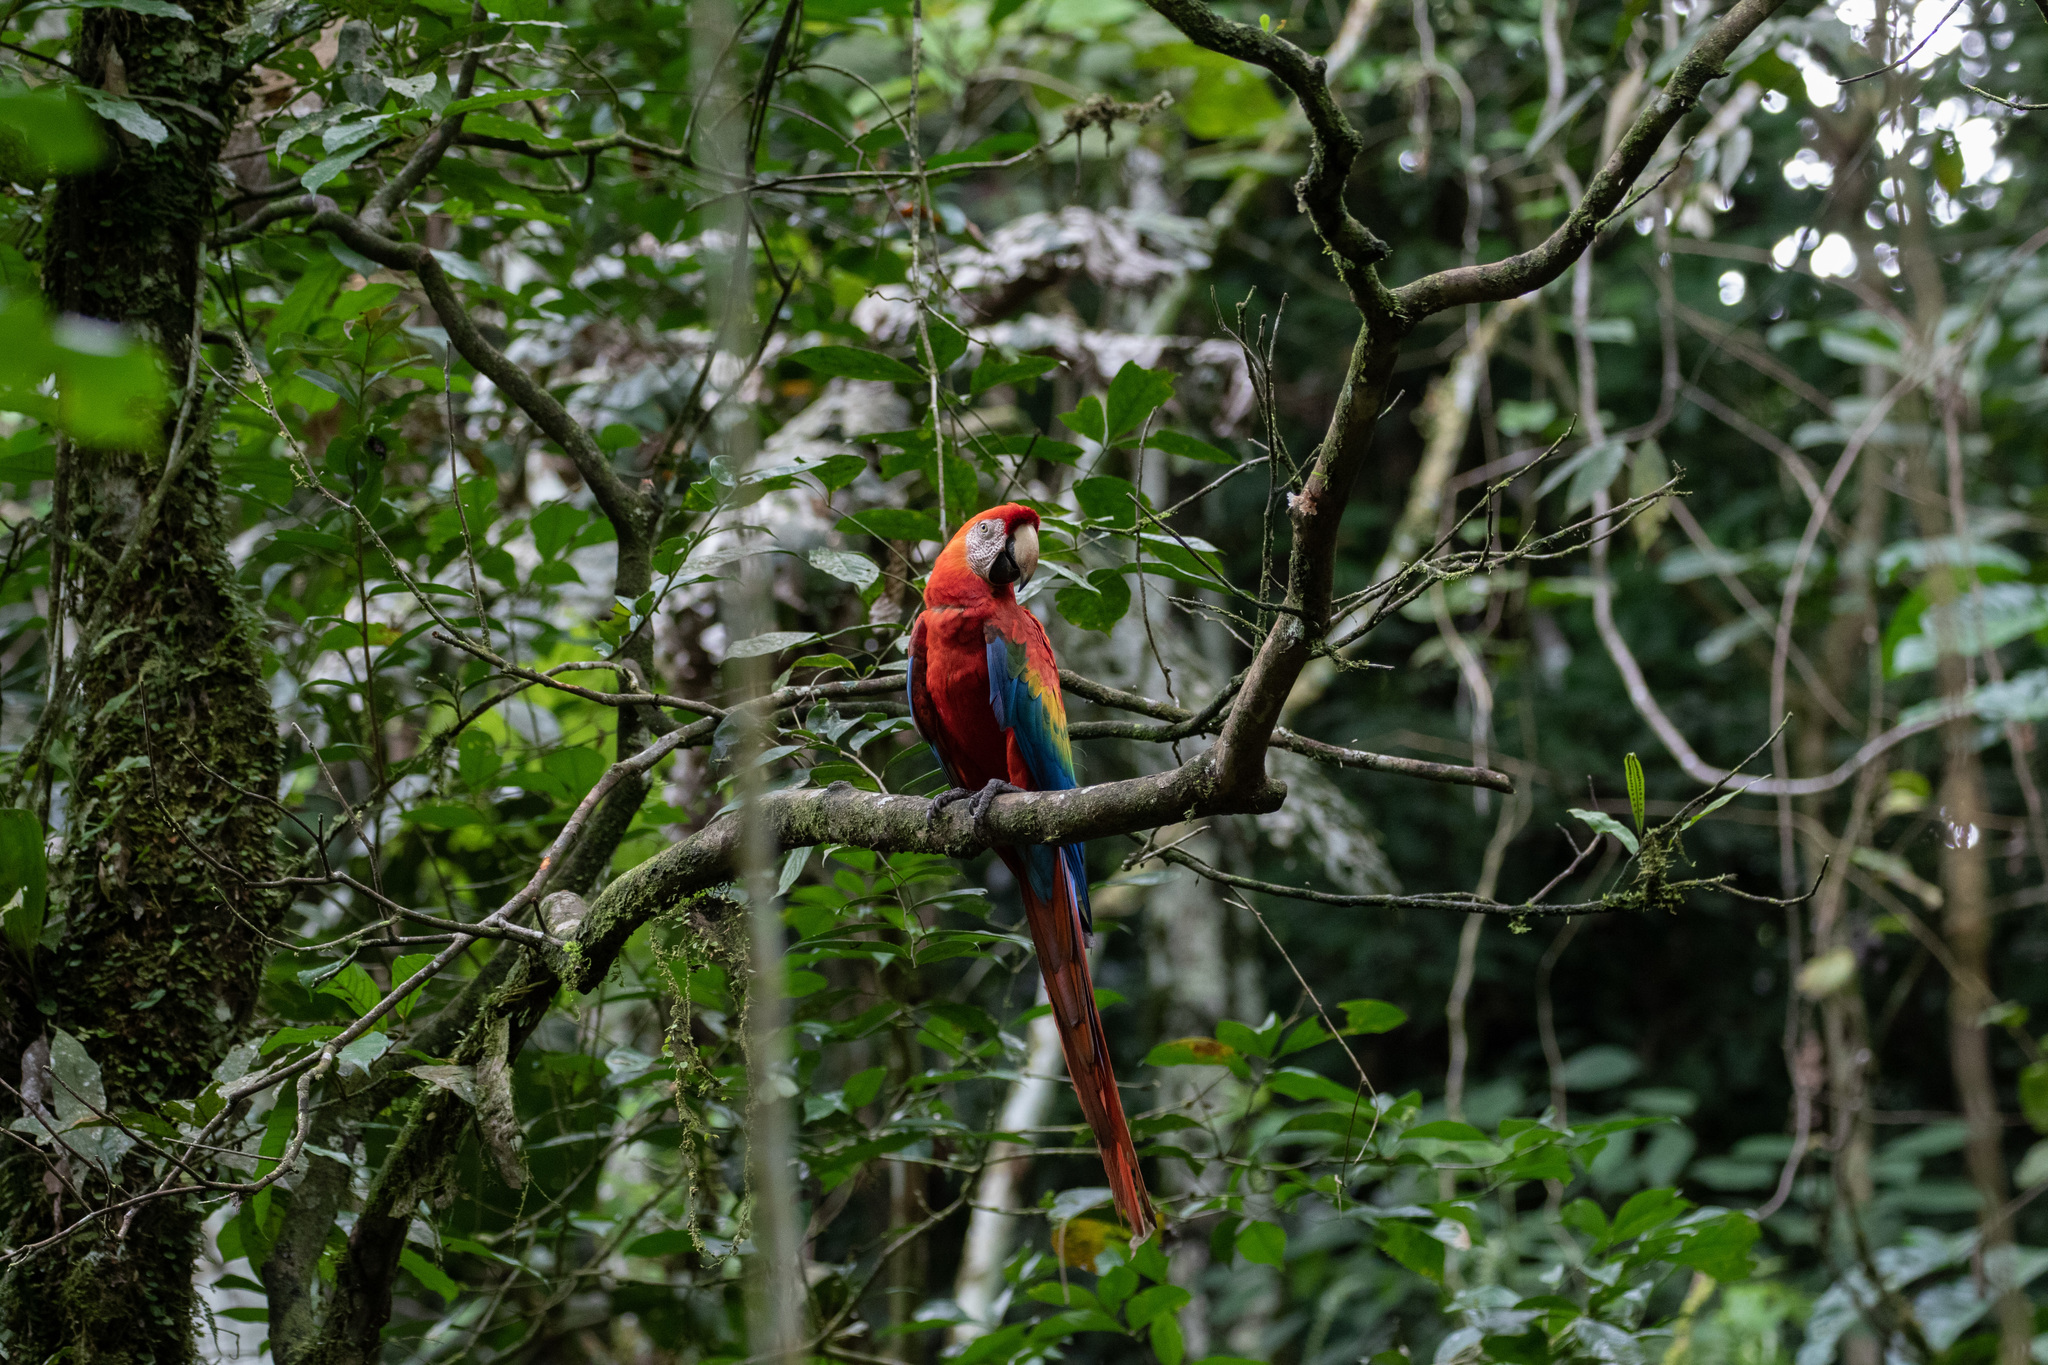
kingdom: Animalia
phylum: Chordata
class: Aves
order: Psittaciformes
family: Psittacidae
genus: Ara
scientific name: Ara macao
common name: Scarlet macaw
